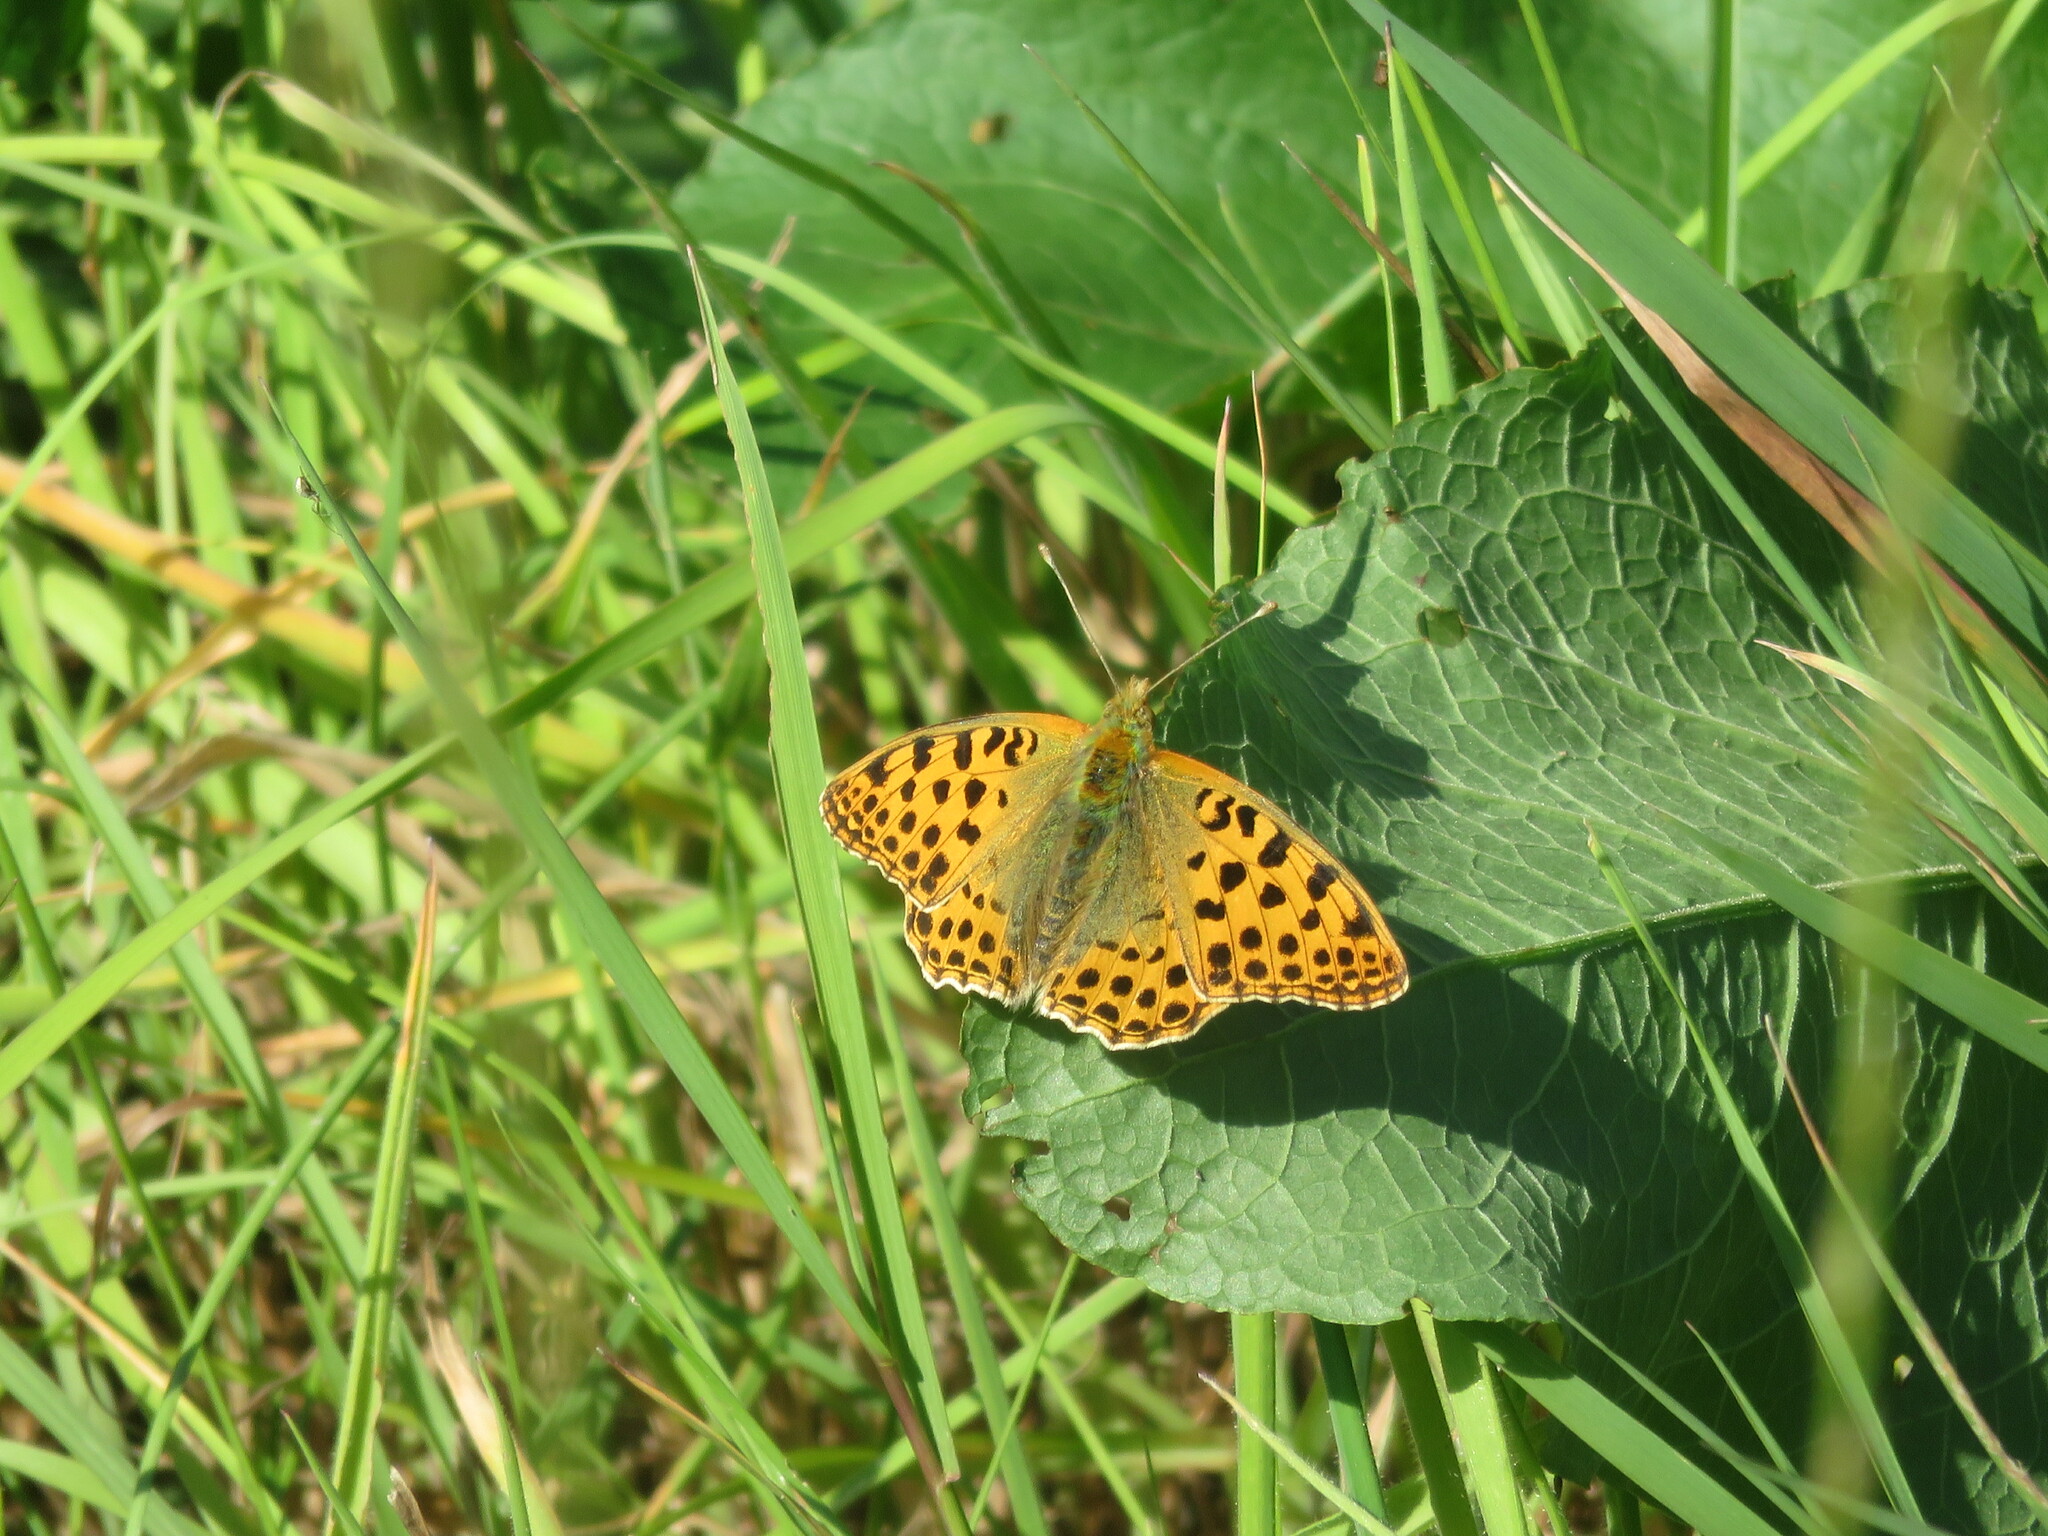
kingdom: Animalia
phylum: Arthropoda
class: Insecta
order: Lepidoptera
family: Nymphalidae
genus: Issoria
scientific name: Issoria lathonia
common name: Queen of spain fritillary
